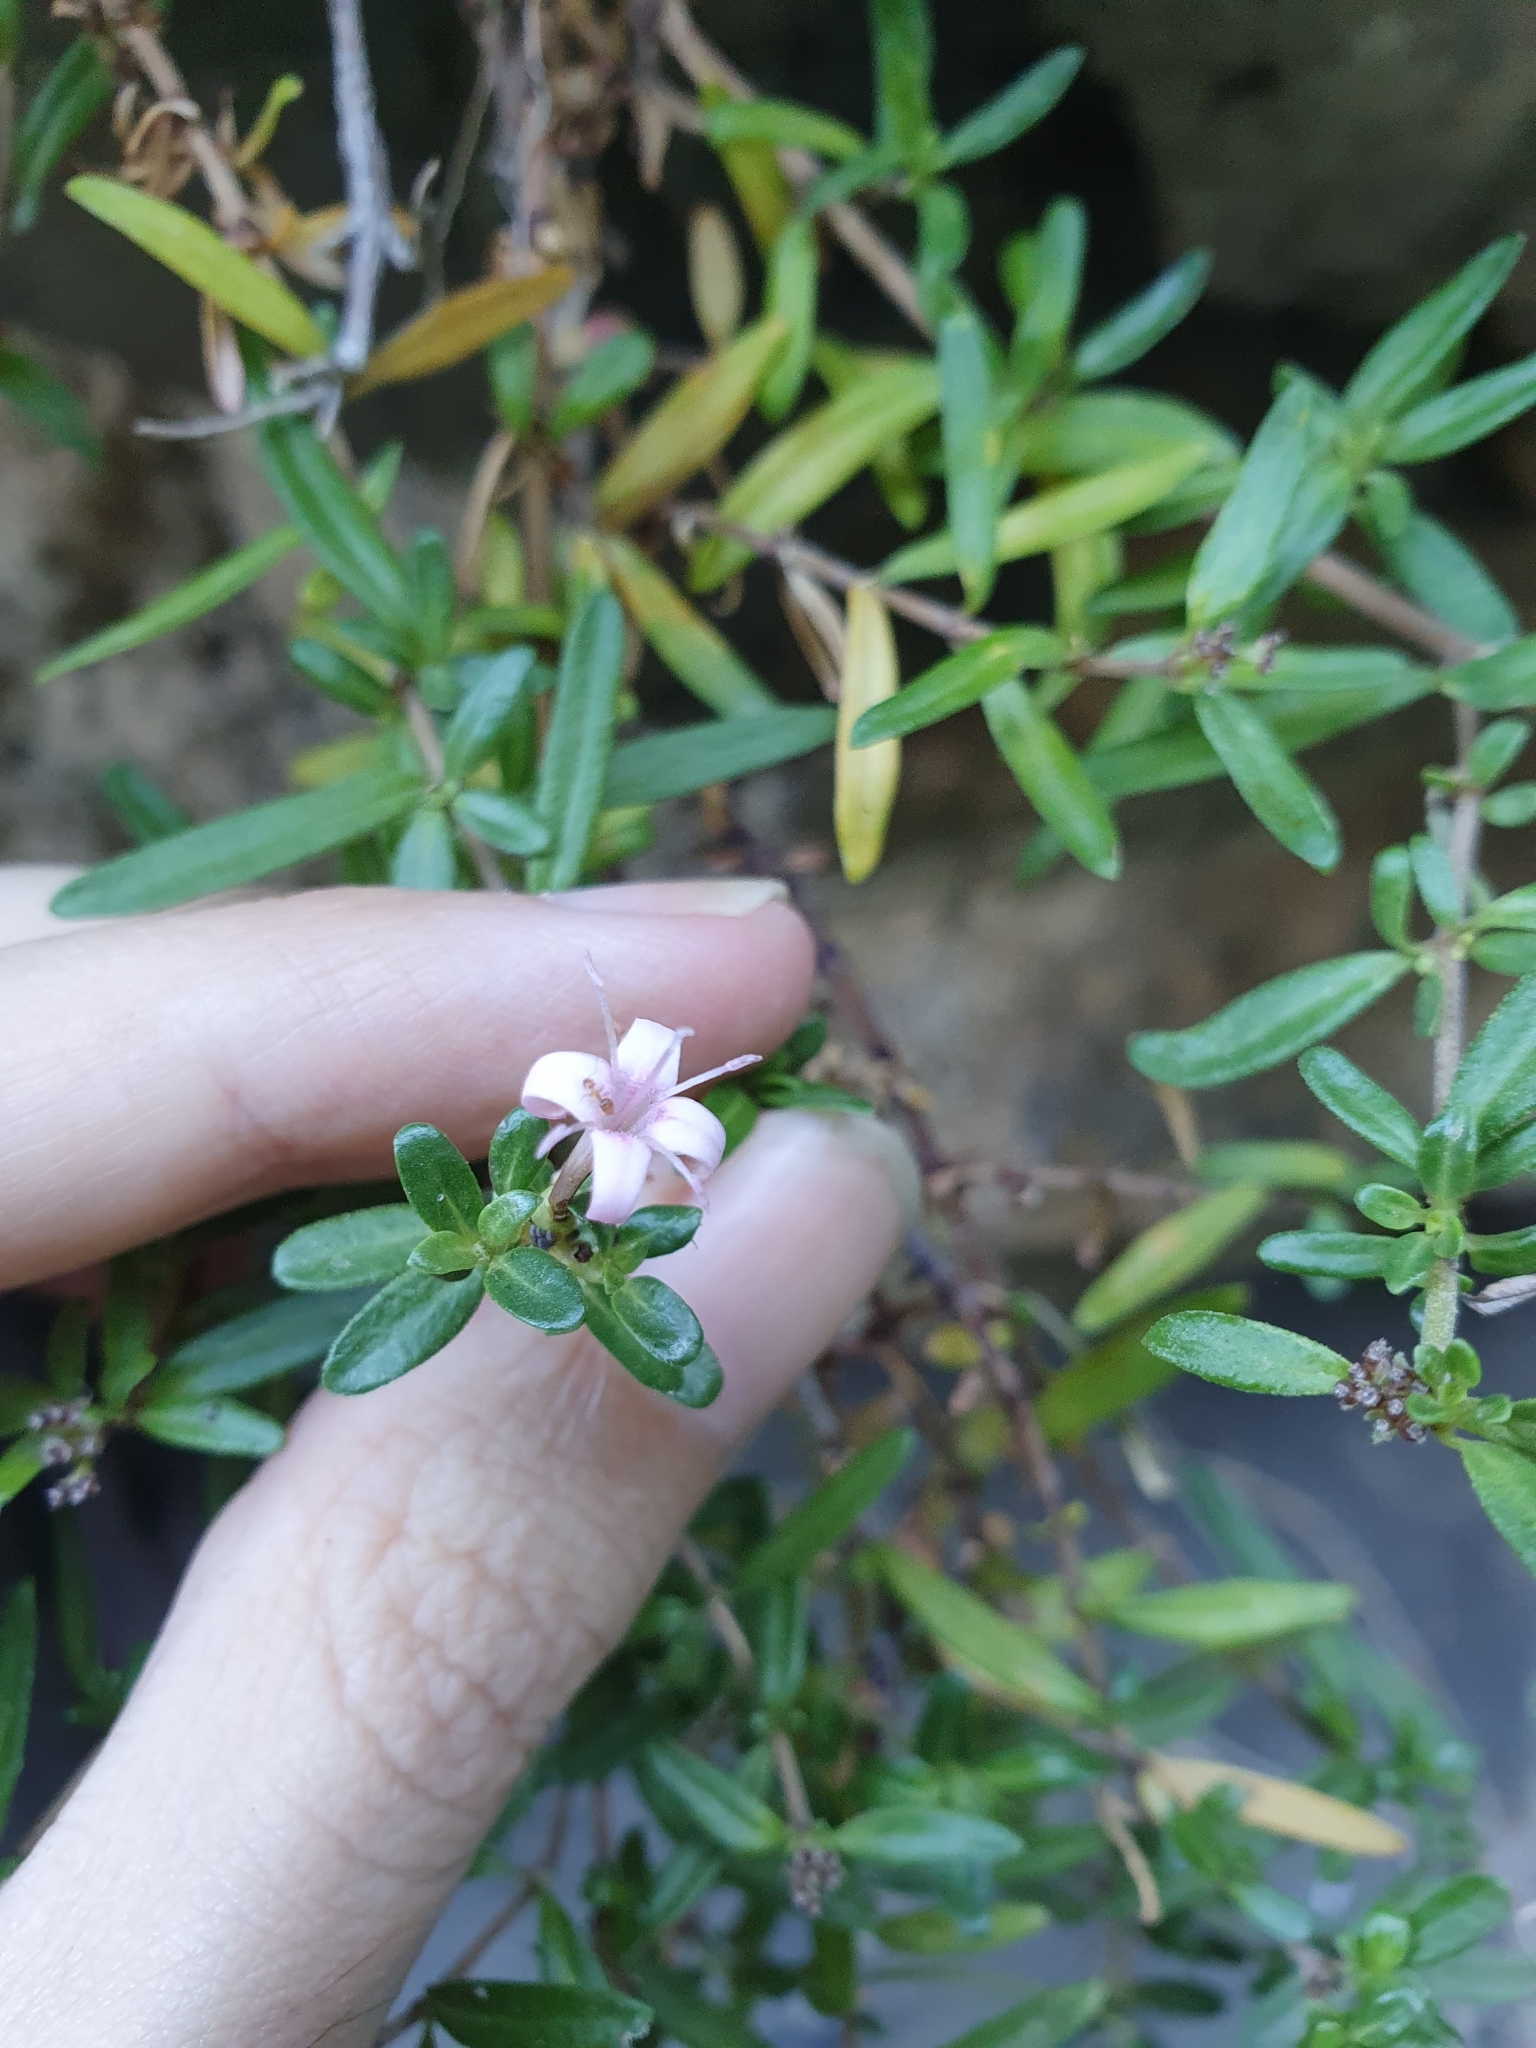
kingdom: Plantae
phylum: Tracheophyta
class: Magnoliopsida
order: Gentianales
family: Rubiaceae
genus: Plocama
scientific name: Plocama calabrica
